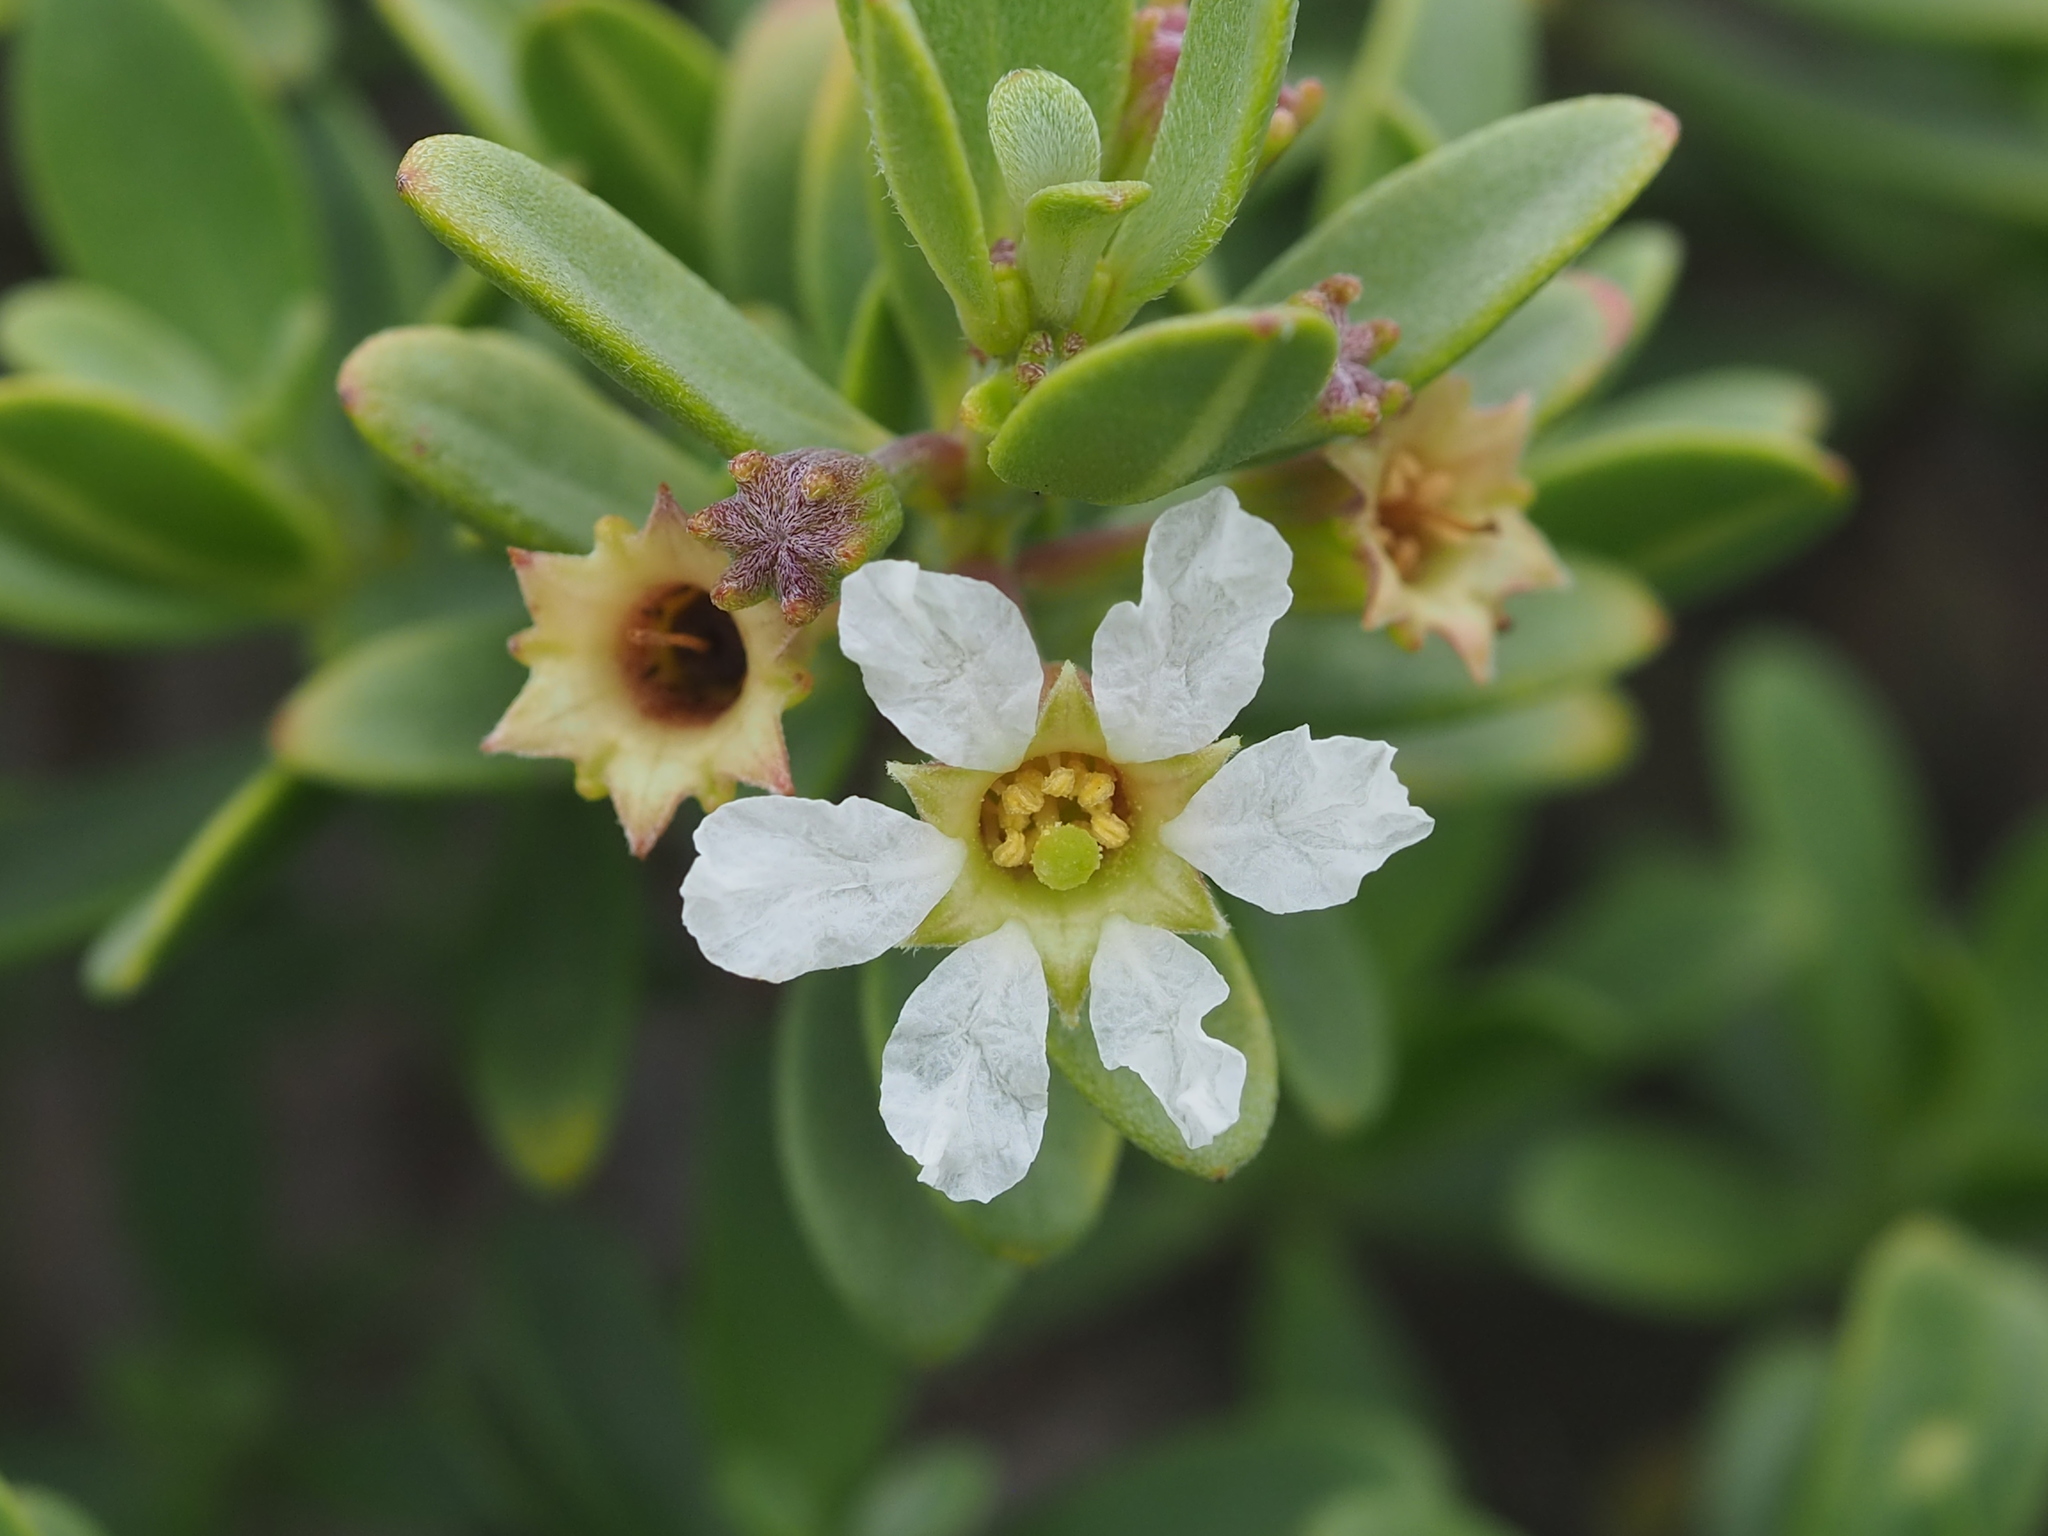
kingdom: Plantae
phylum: Tracheophyta
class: Magnoliopsida
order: Myrtales
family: Lythraceae
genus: Pemphis
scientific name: Pemphis acidula
